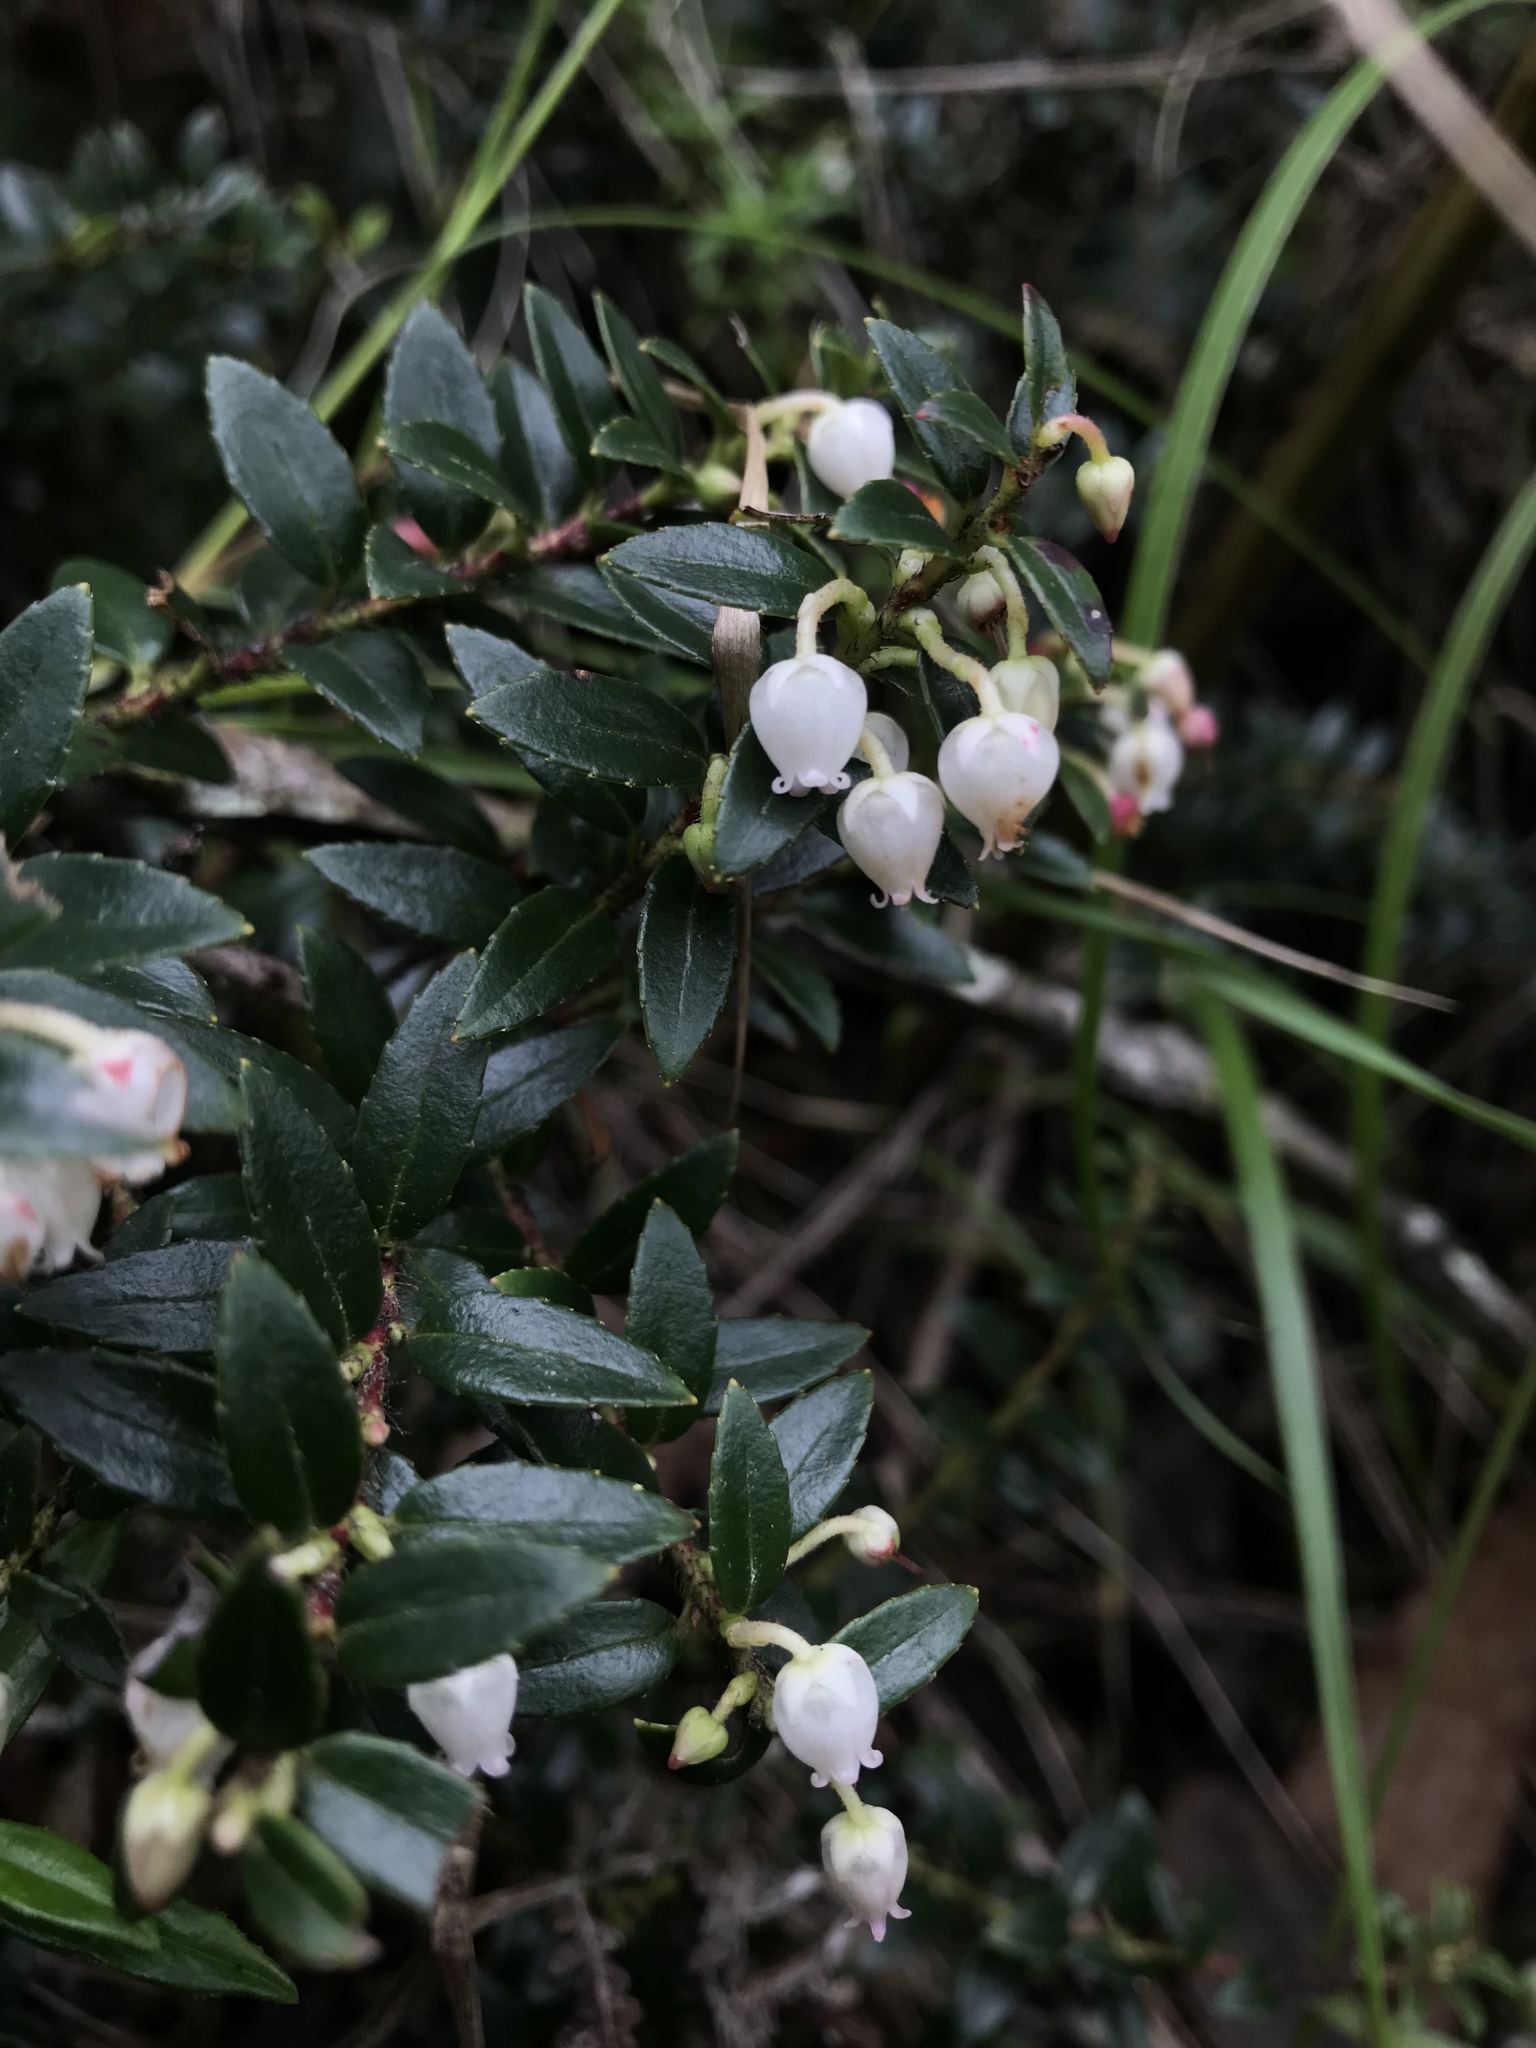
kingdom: Plantae
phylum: Tracheophyta
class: Magnoliopsida
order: Ericales
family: Ericaceae
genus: Gaultheria
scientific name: Gaultheria myrsinoides
